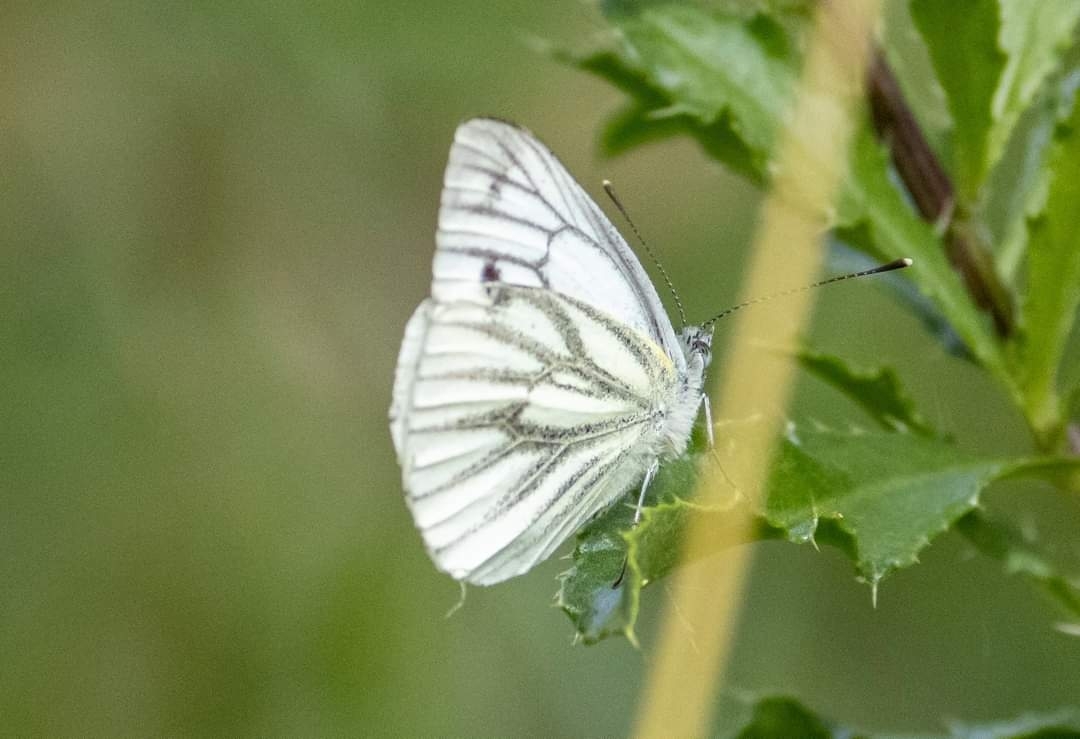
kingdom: Animalia
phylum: Arthropoda
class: Insecta
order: Lepidoptera
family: Pieridae
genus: Pieris
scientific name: Pieris napi
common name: Green-veined white
